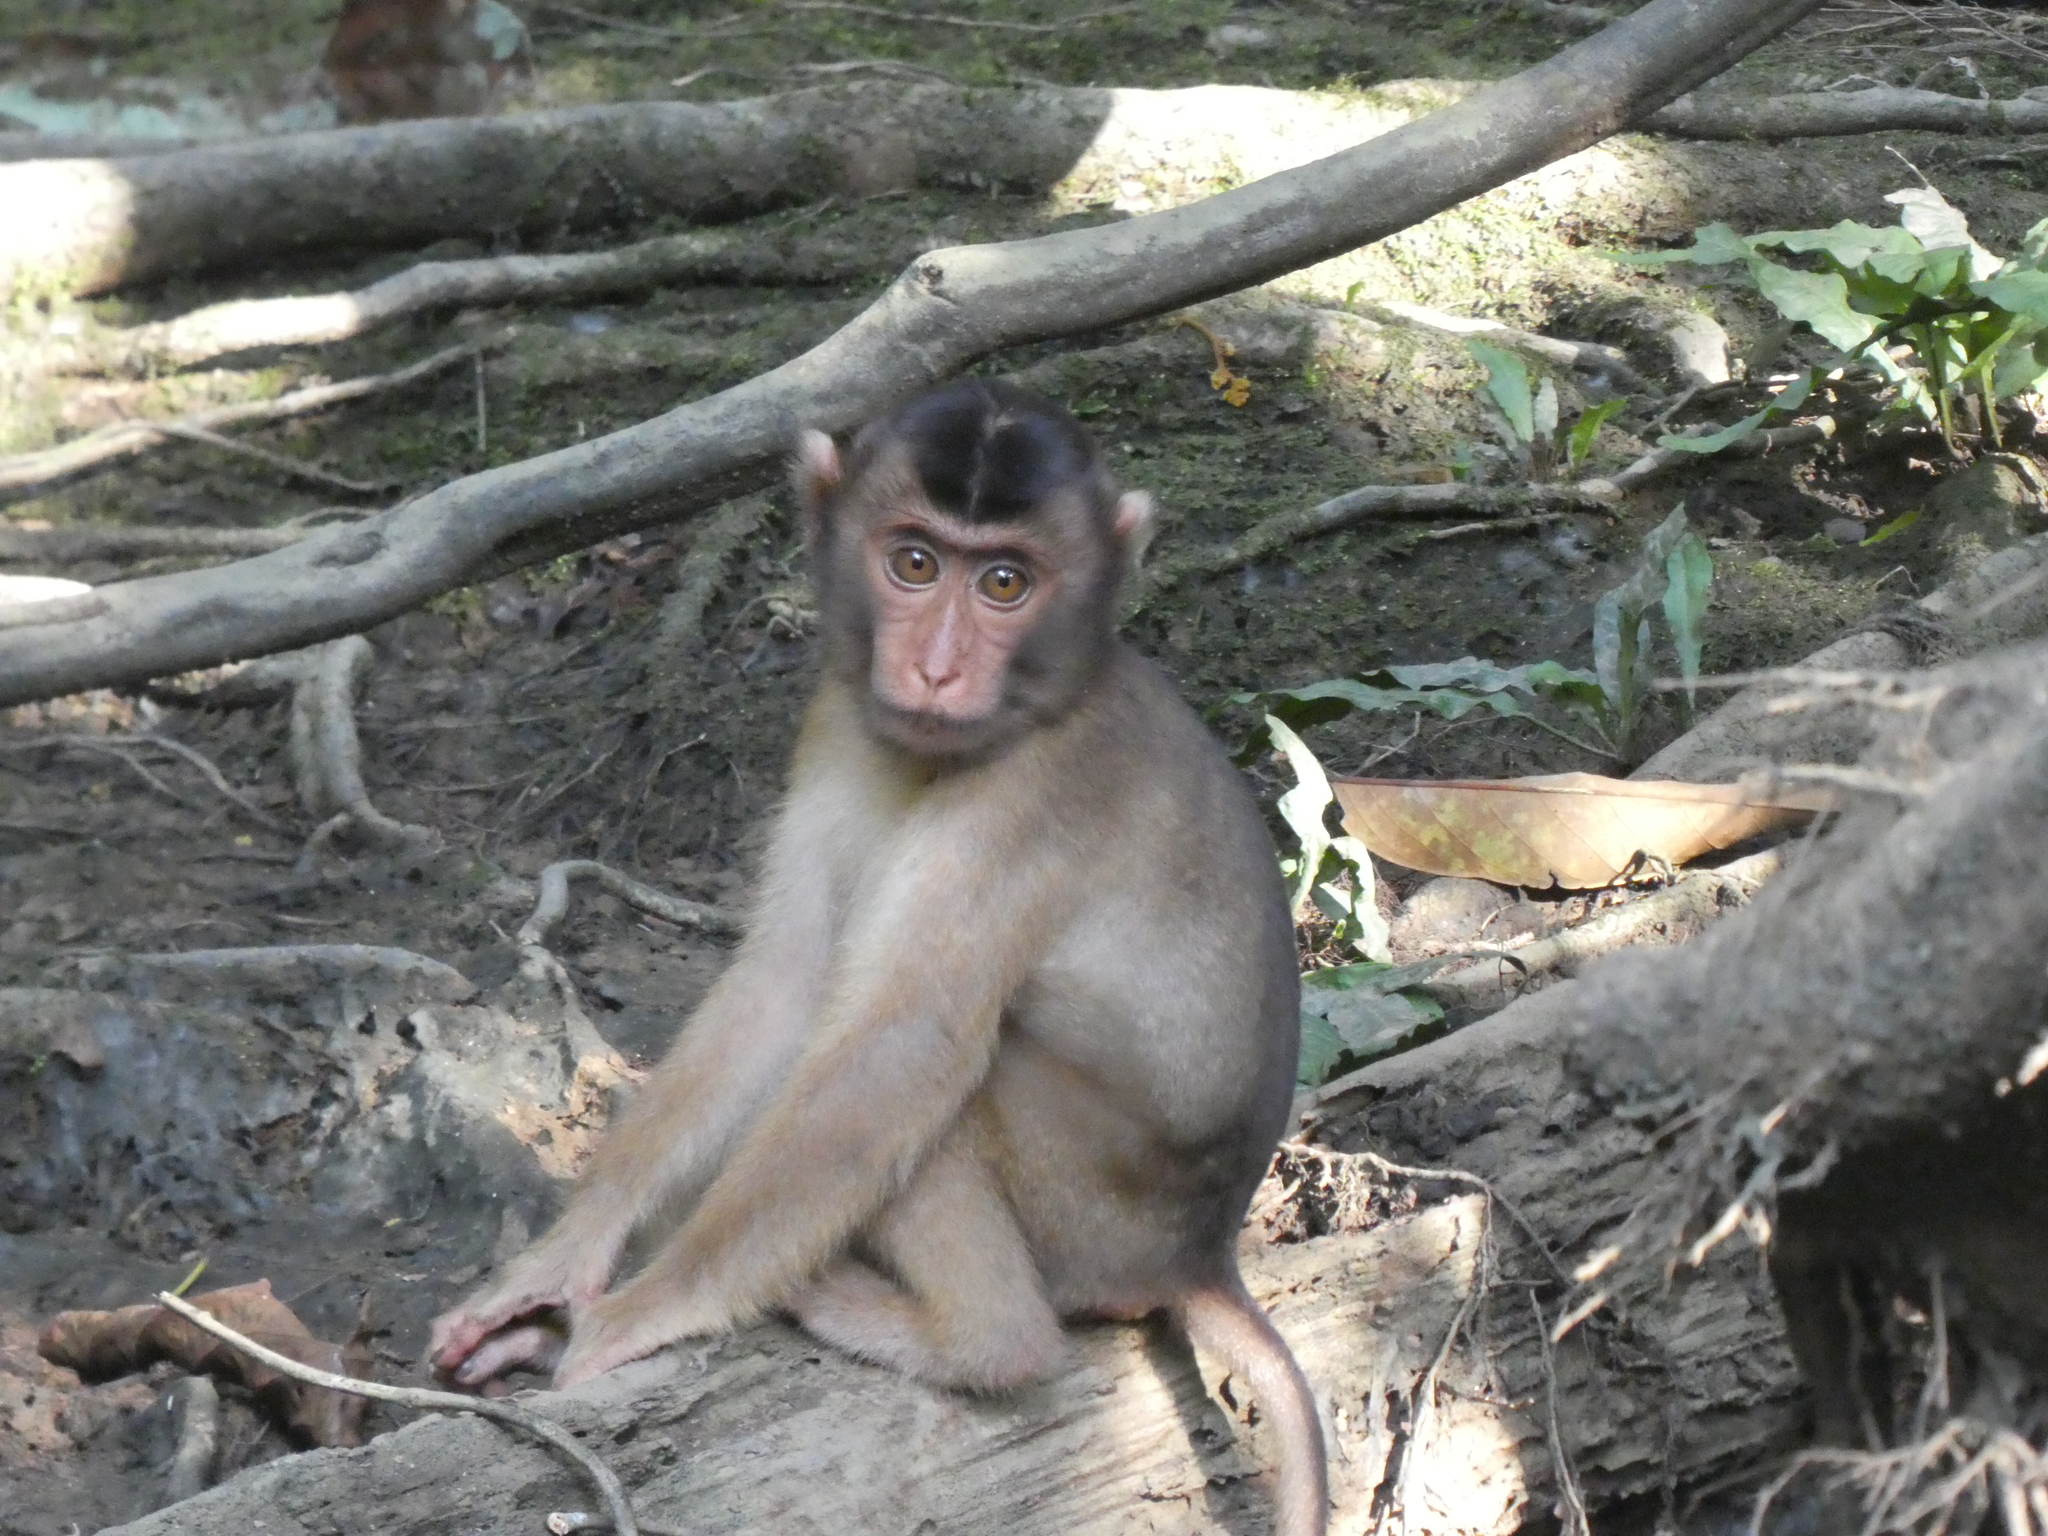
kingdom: Animalia
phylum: Chordata
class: Mammalia
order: Primates
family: Cercopithecidae
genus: Macaca
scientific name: Macaca nemestrina
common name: Southern pig-tailed macaque
